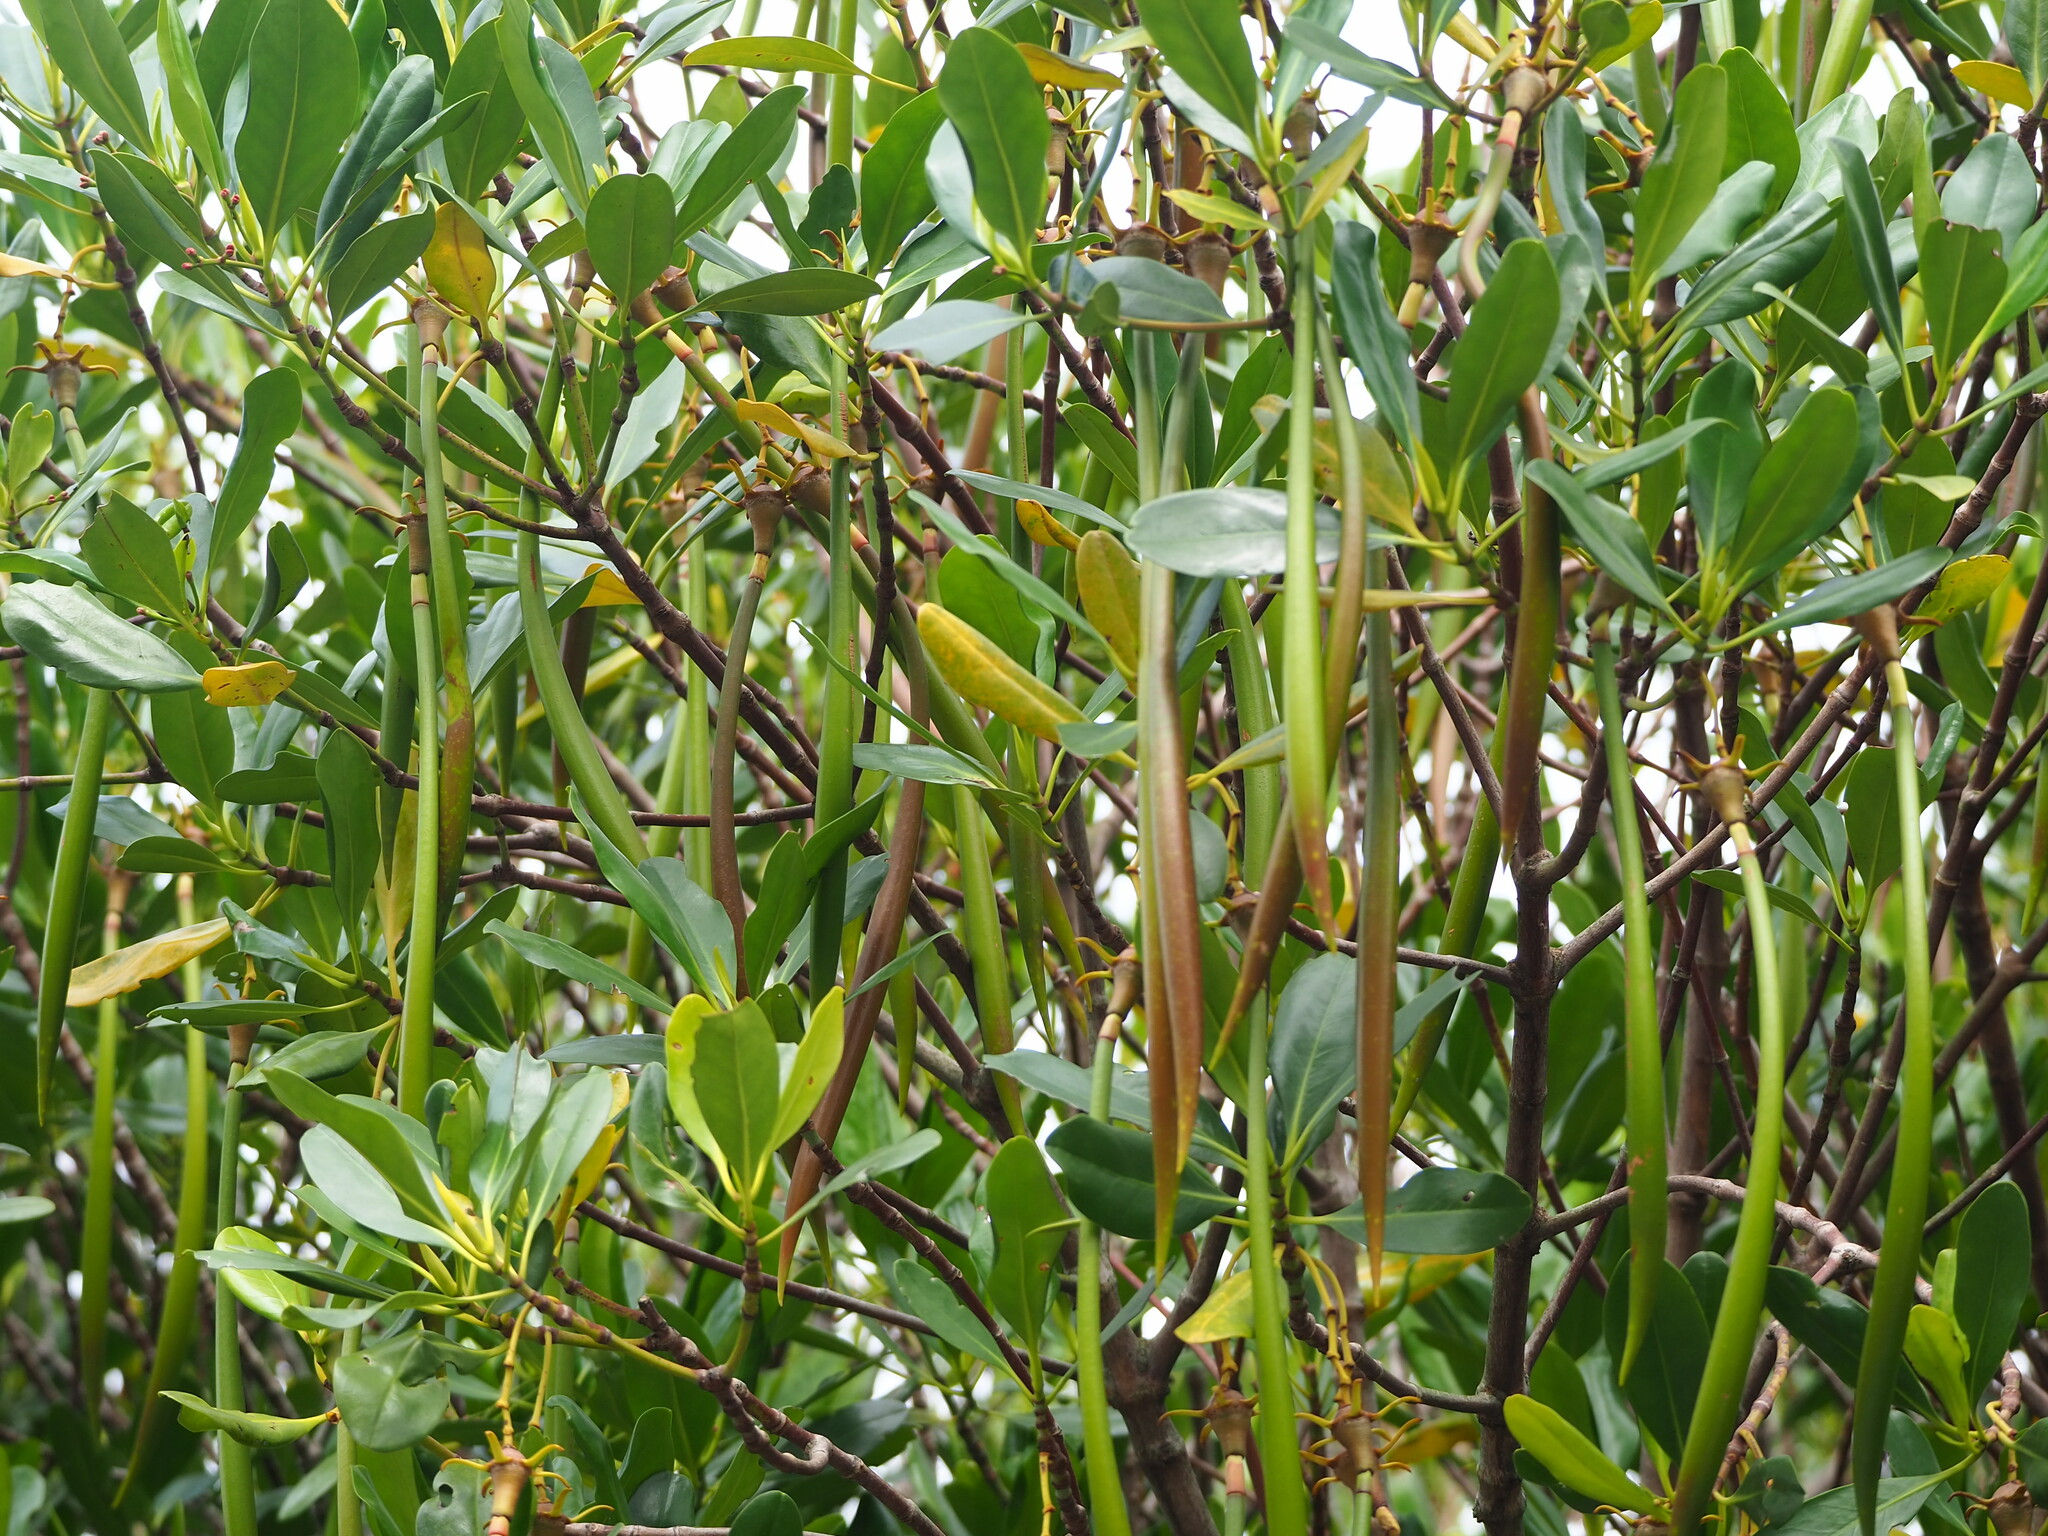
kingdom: Plantae
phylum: Tracheophyta
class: Magnoliopsida
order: Malpighiales
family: Rhizophoraceae
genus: Kandelia
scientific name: Kandelia obovata
